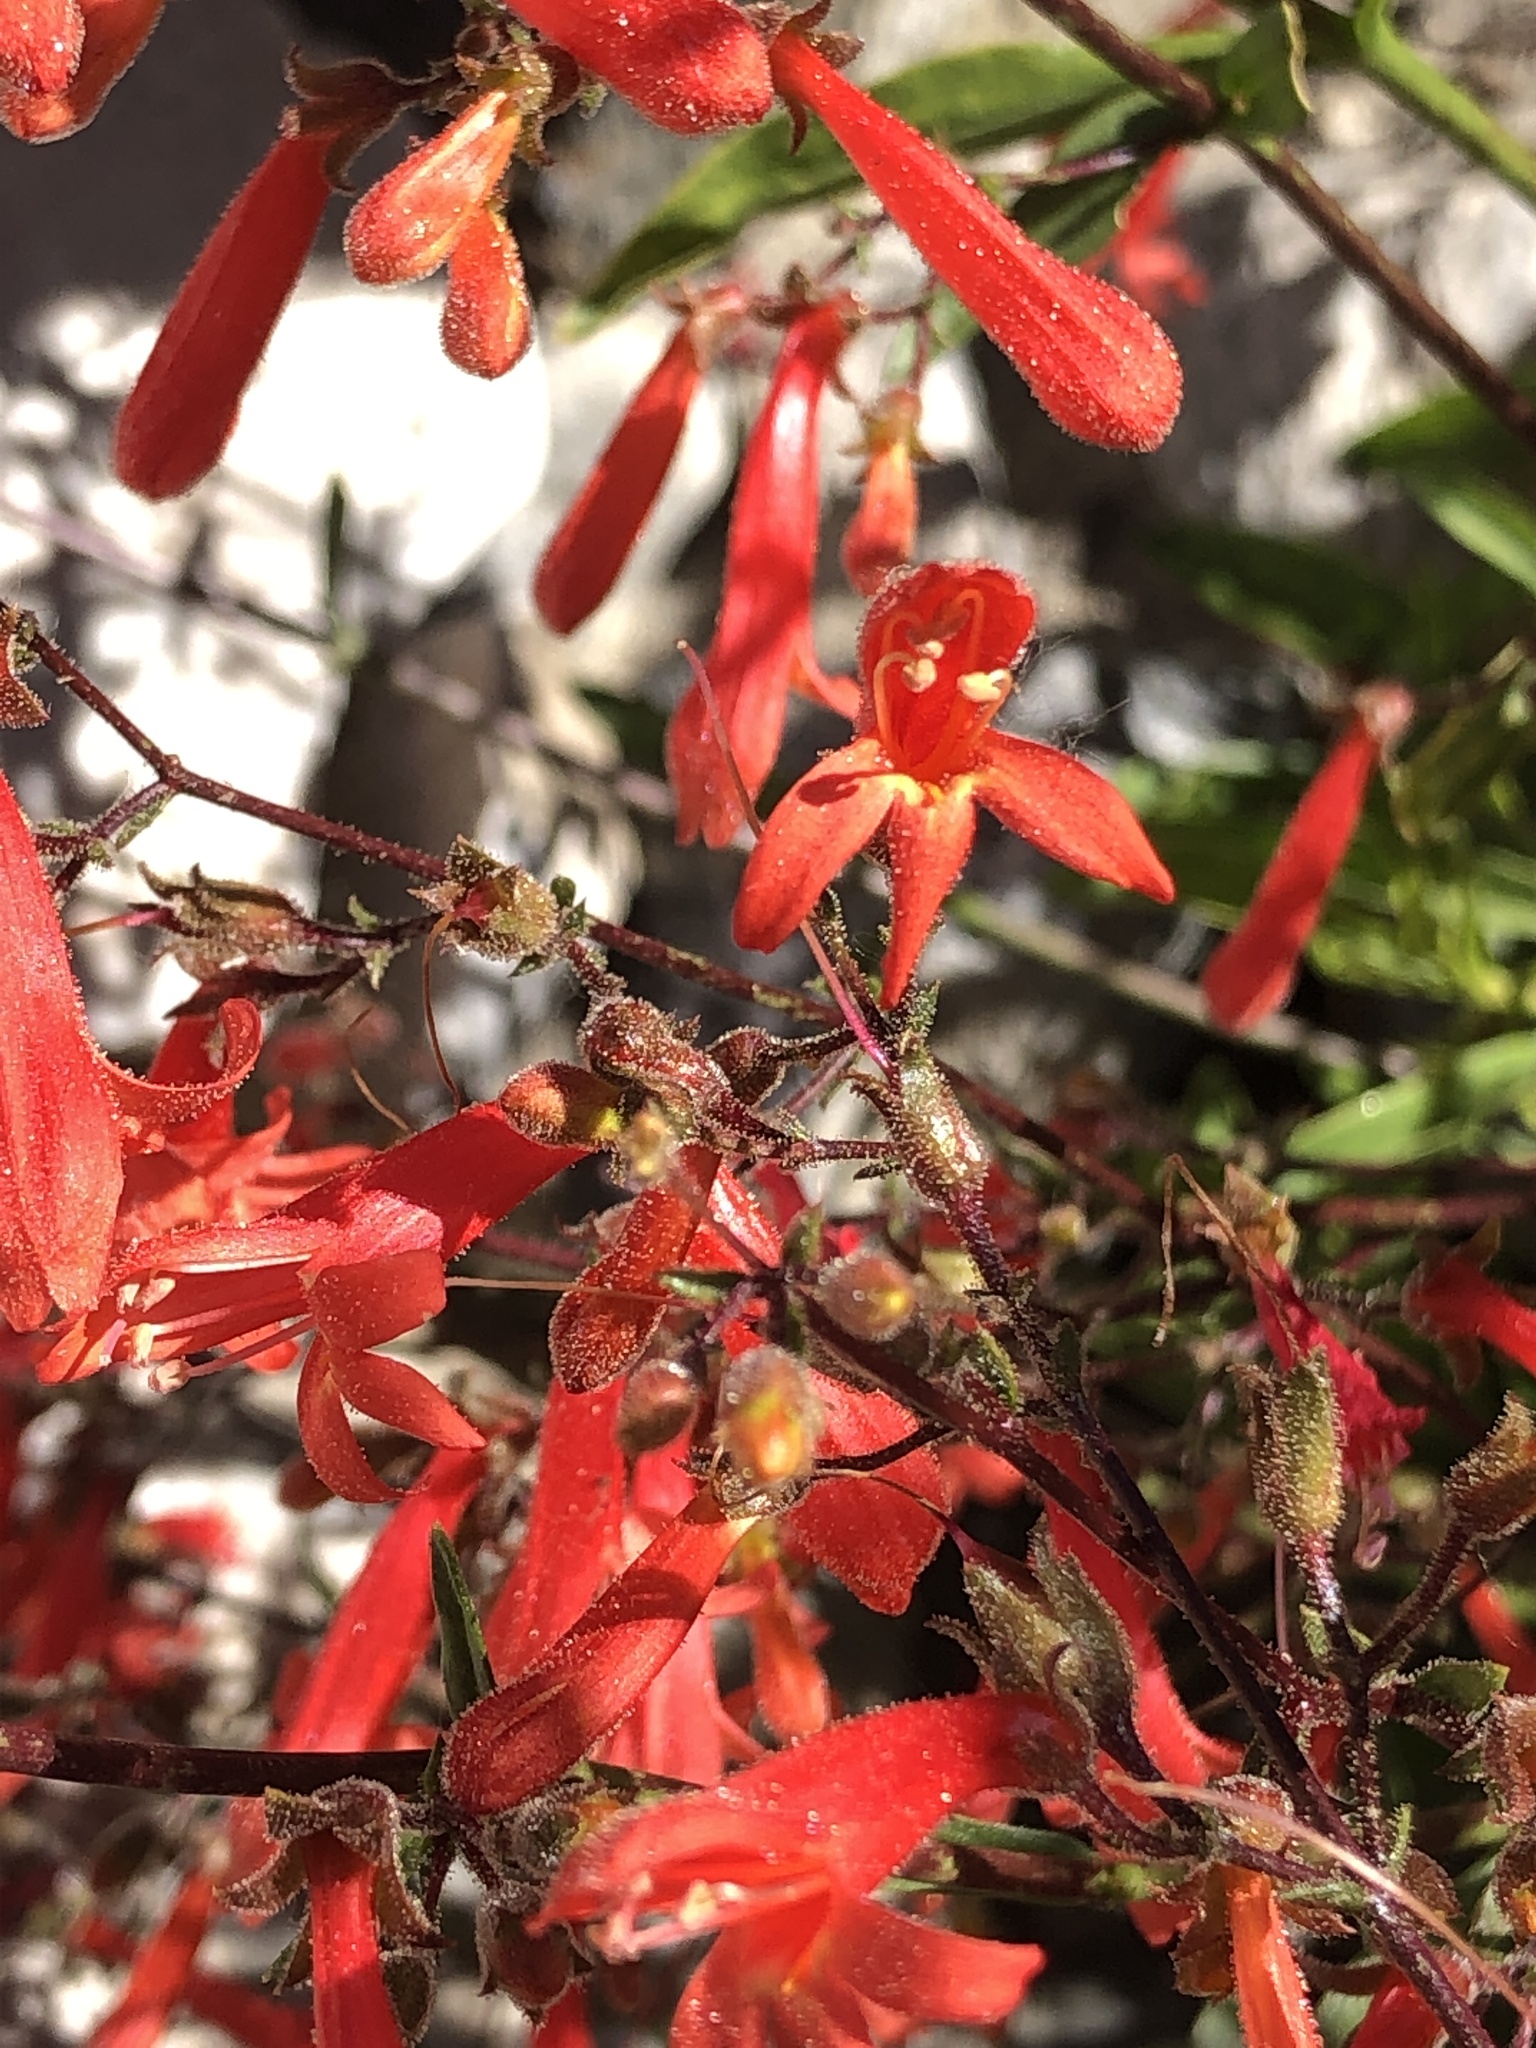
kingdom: Plantae
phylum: Tracheophyta
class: Magnoliopsida
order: Lamiales
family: Plantaginaceae
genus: Penstemon
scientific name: Penstemon rostriflorus
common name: Bridges's penstemon
